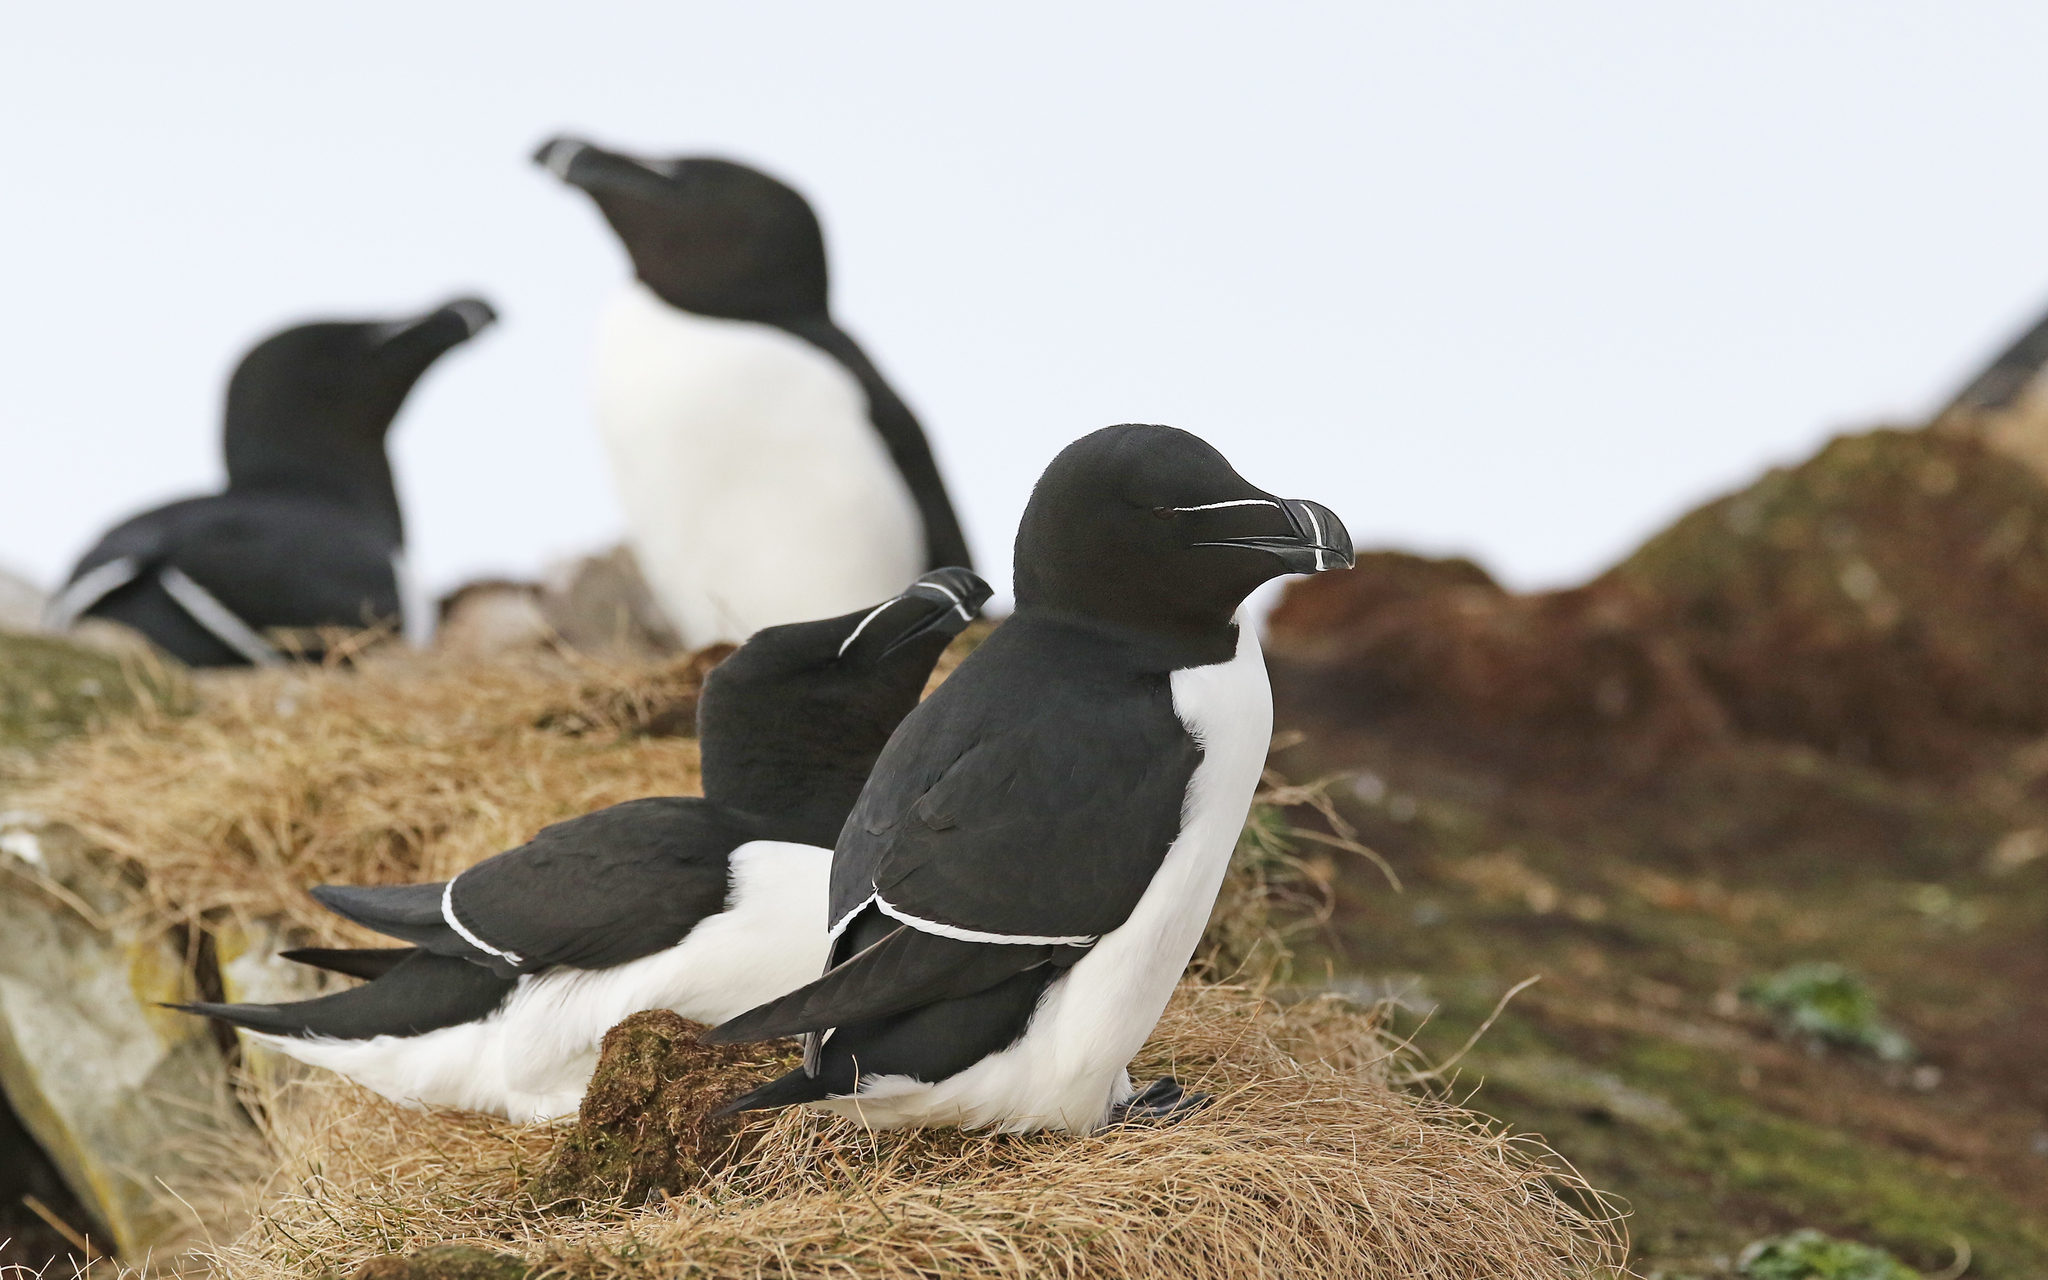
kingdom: Animalia
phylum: Chordata
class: Aves
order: Charadriiformes
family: Alcidae
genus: Alca
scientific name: Alca torda
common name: Razorbill
